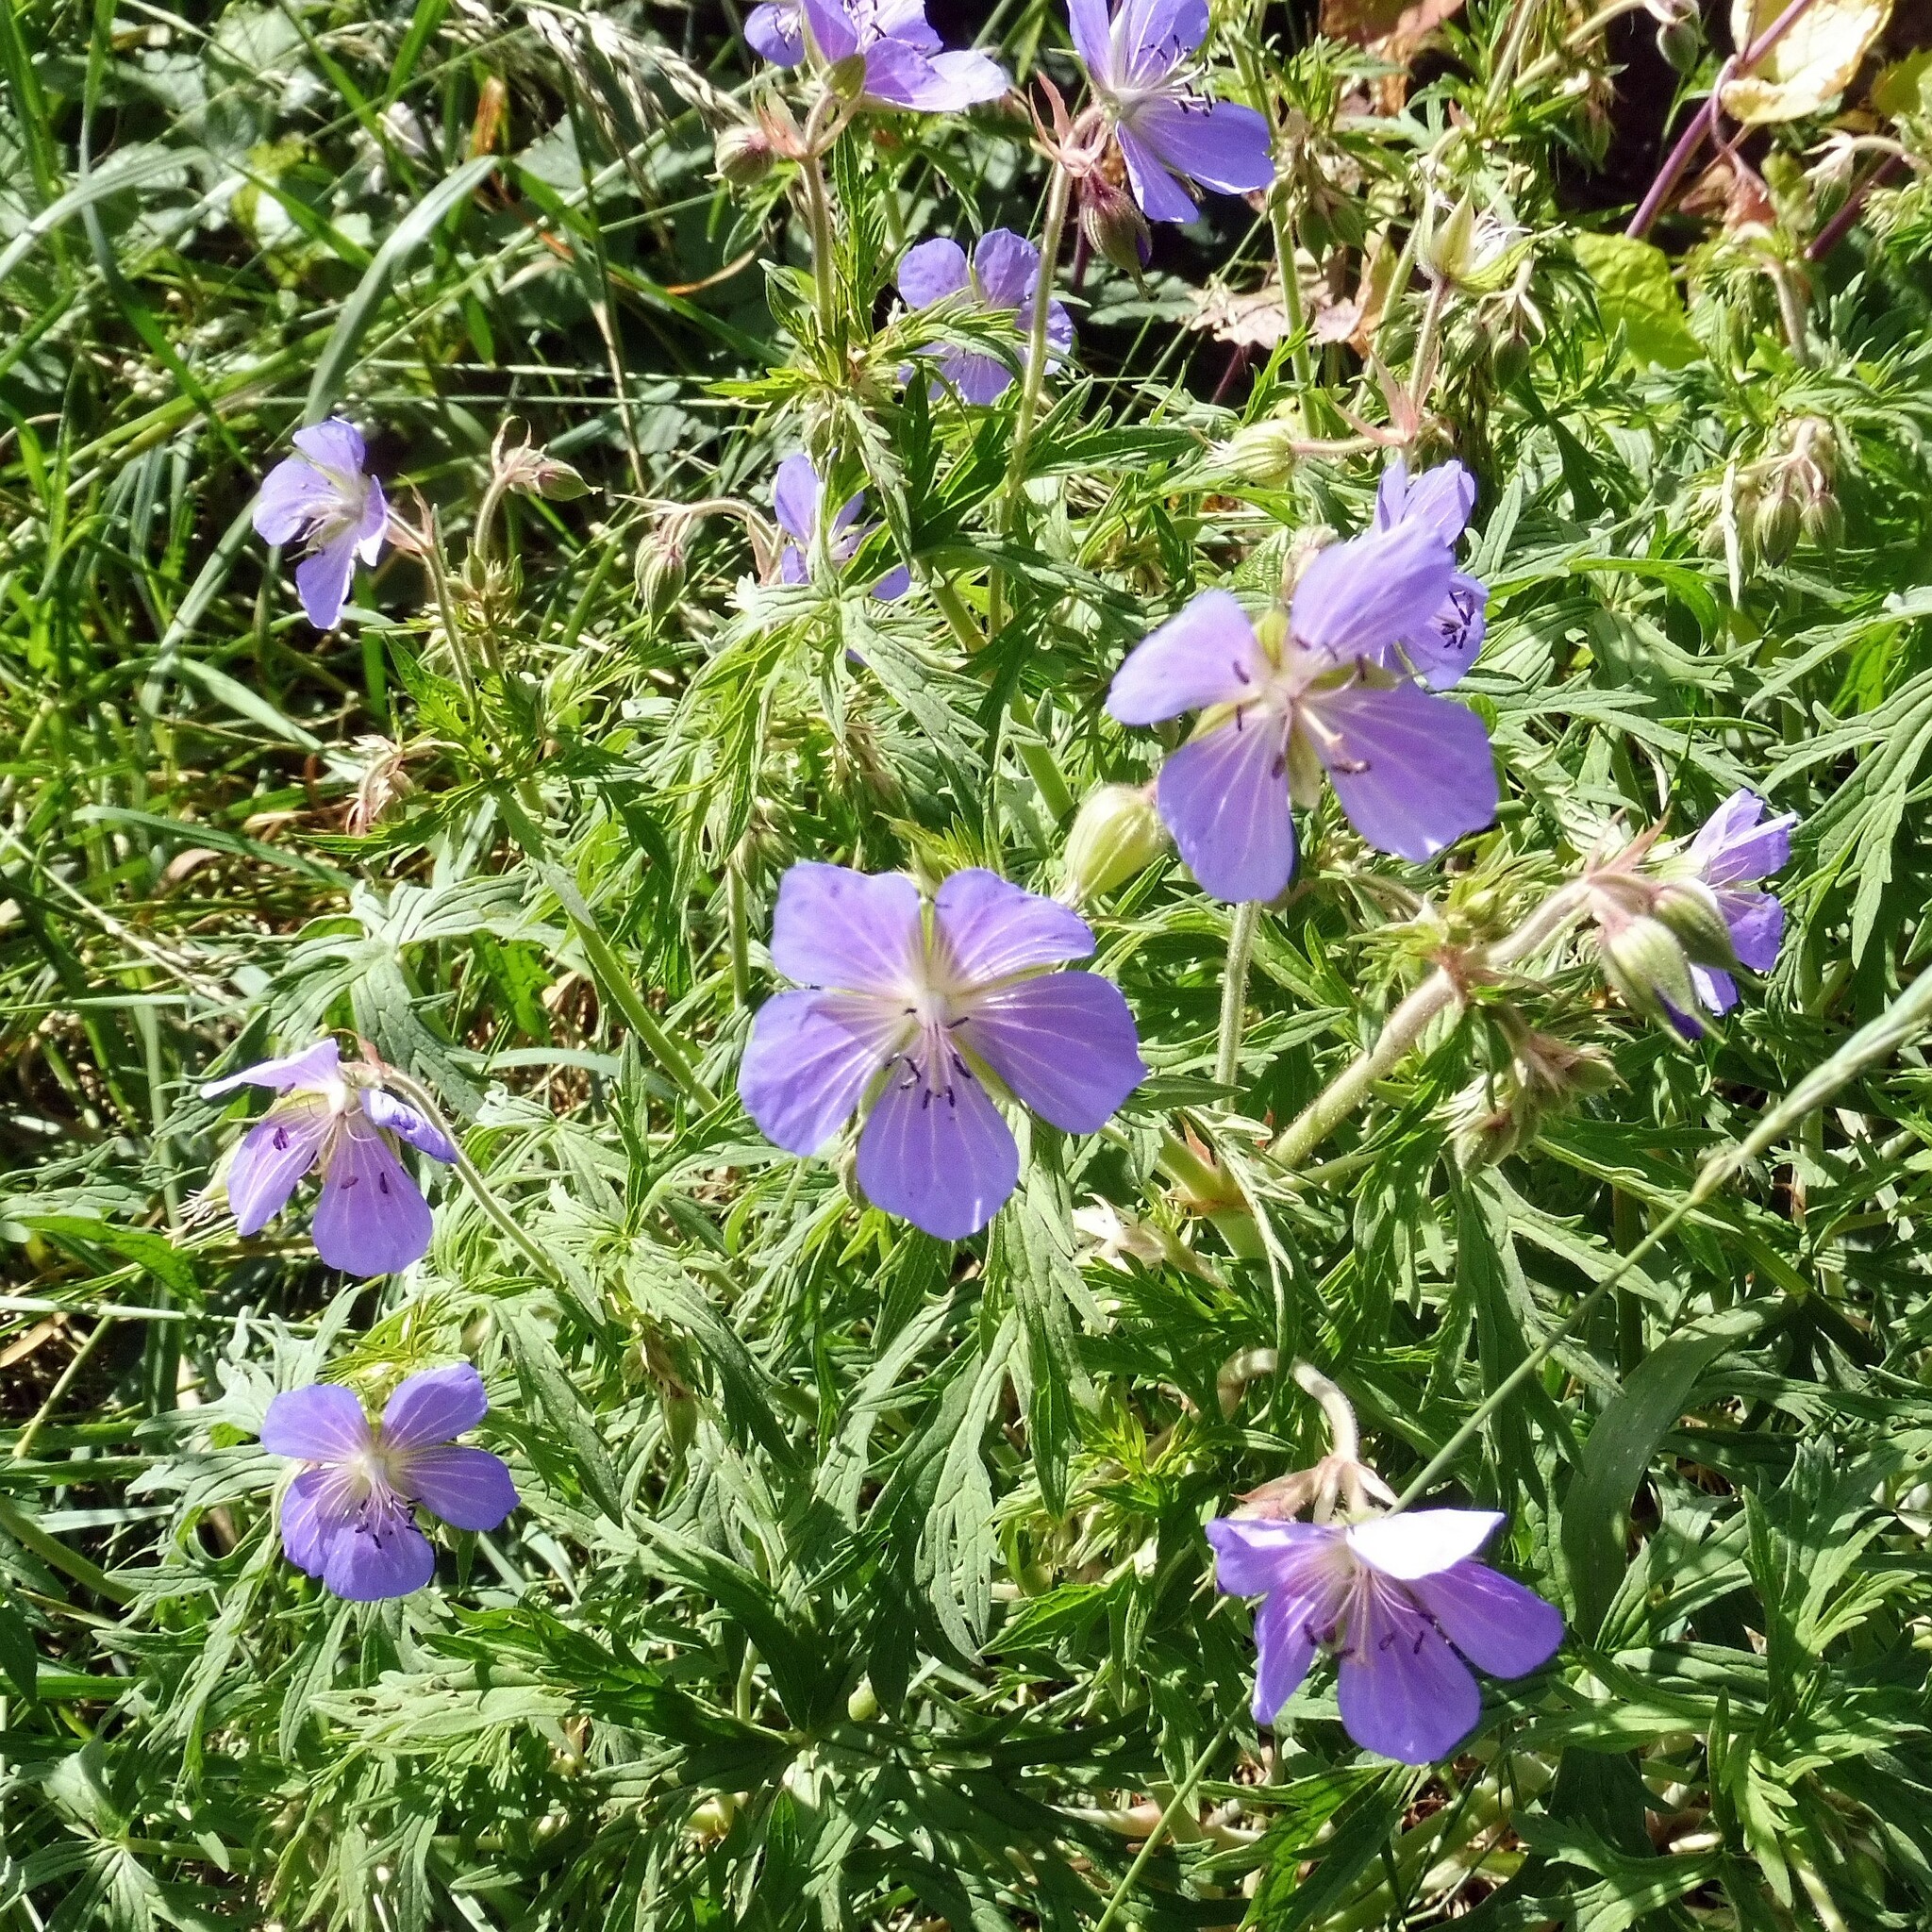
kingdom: Plantae
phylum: Tracheophyta
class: Magnoliopsida
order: Geraniales
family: Geraniaceae
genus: Geranium
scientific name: Geranium pratense
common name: Meadow crane's-bill
